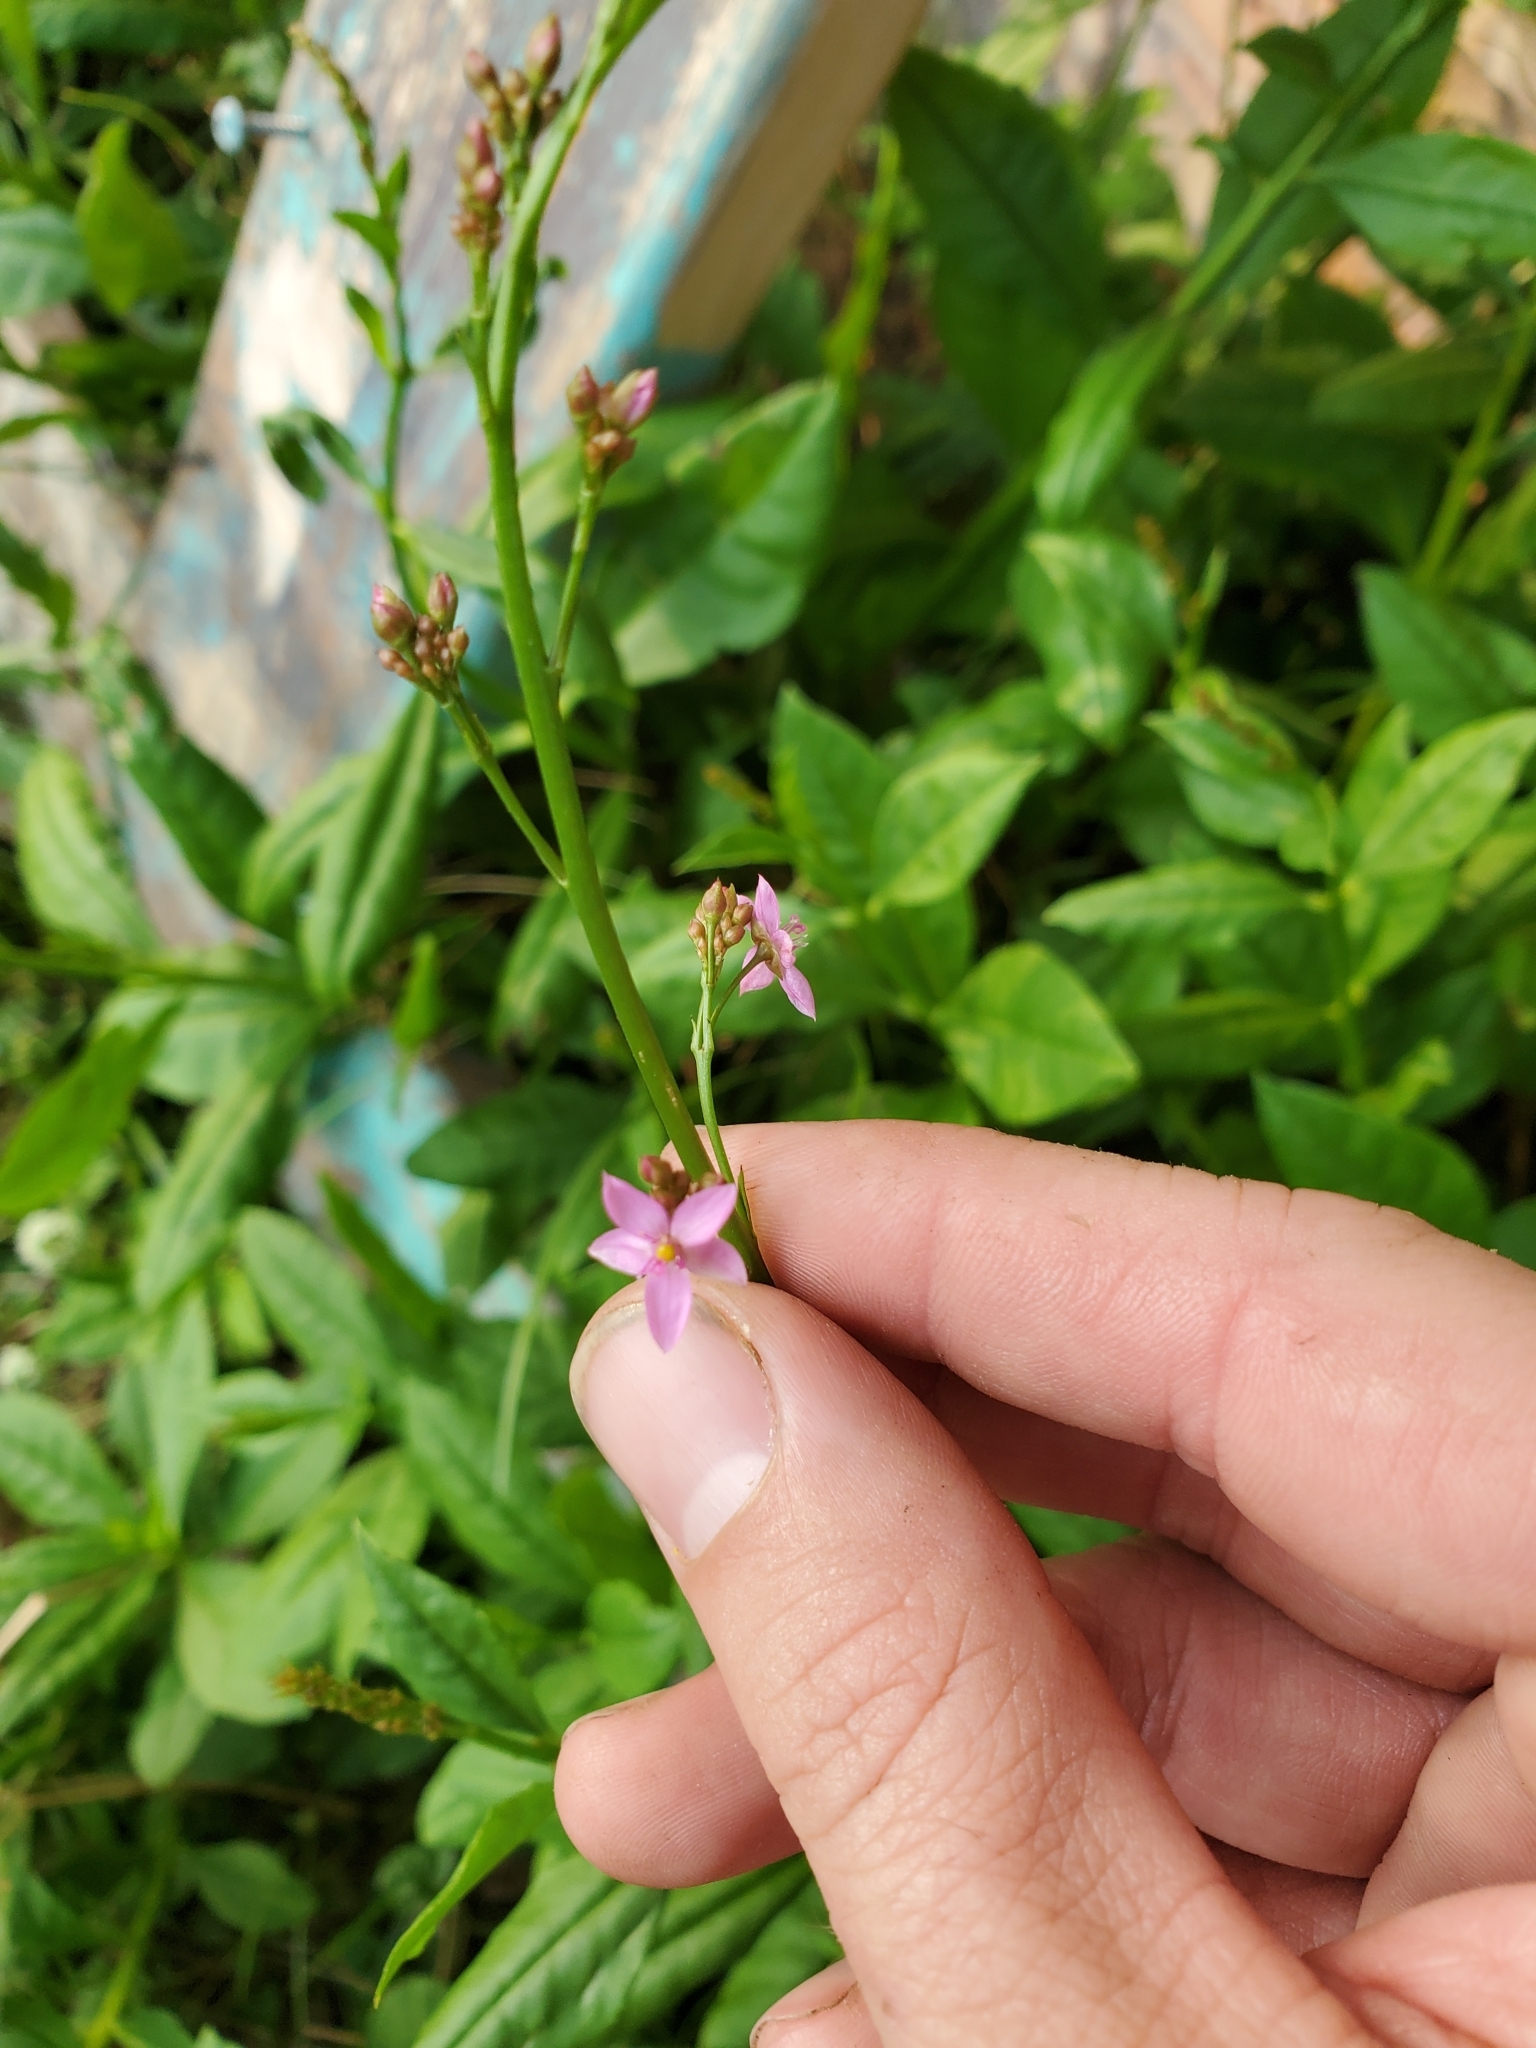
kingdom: Plantae
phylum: Tracheophyta
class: Magnoliopsida
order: Caryophyllales
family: Talinaceae
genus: Talinum
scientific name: Talinum paniculatum
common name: Jewels of opar
